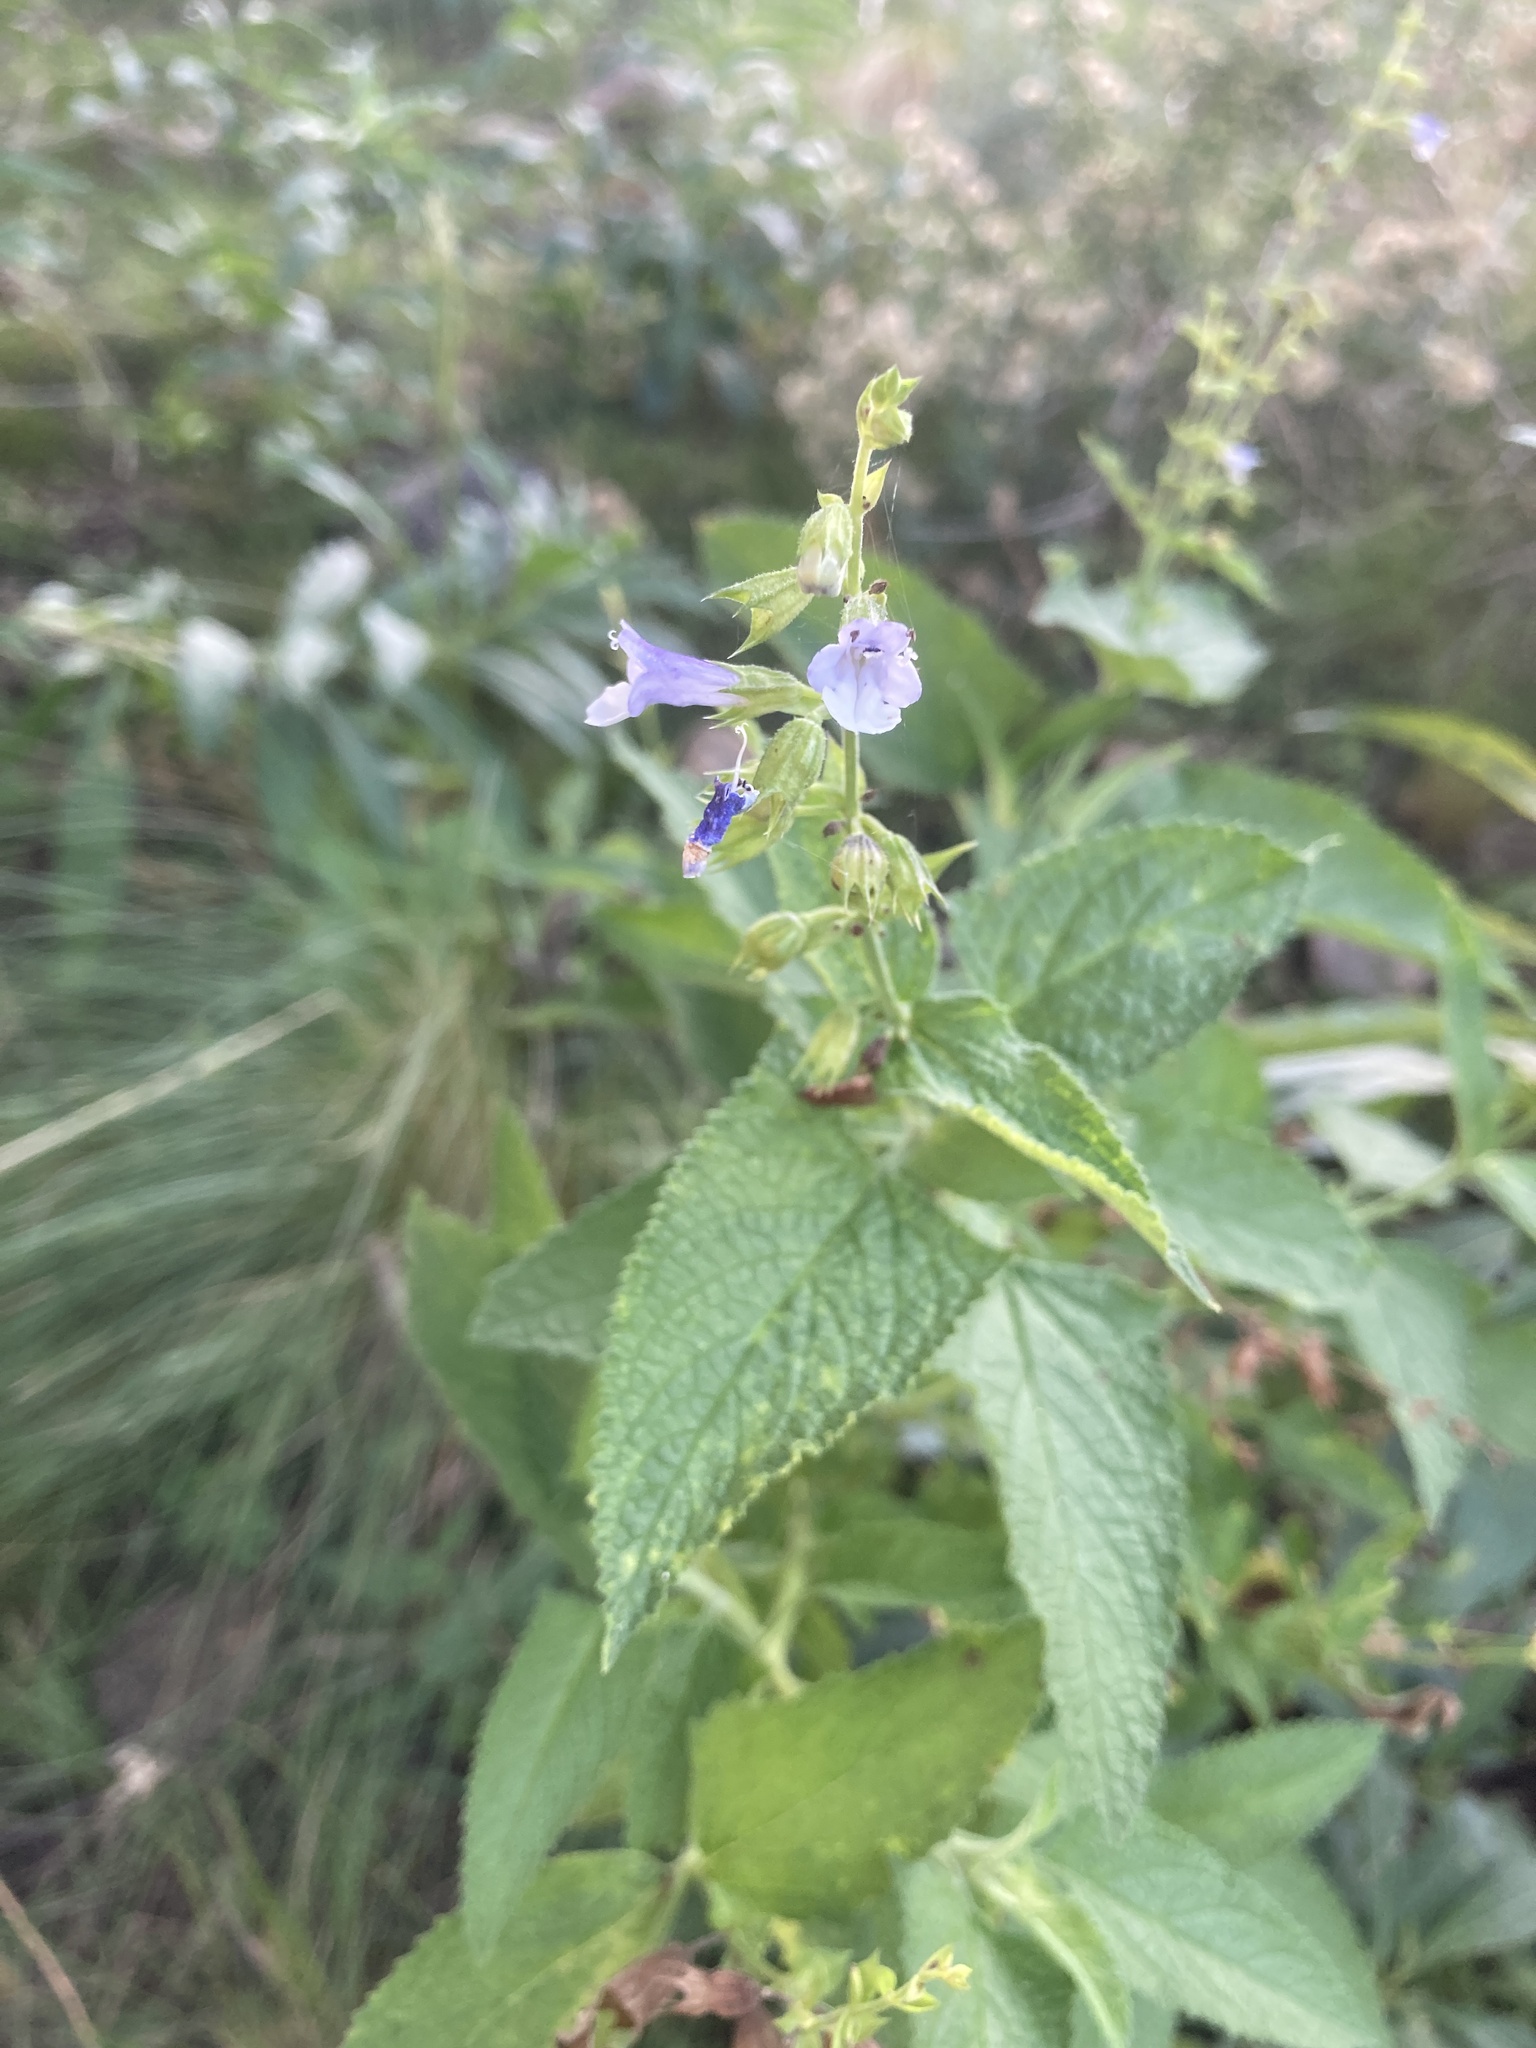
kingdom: Plantae
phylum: Tracheophyta
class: Magnoliopsida
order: Lamiales
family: Lamiaceae
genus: Lepechinia
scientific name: Lepechinia floribunda
